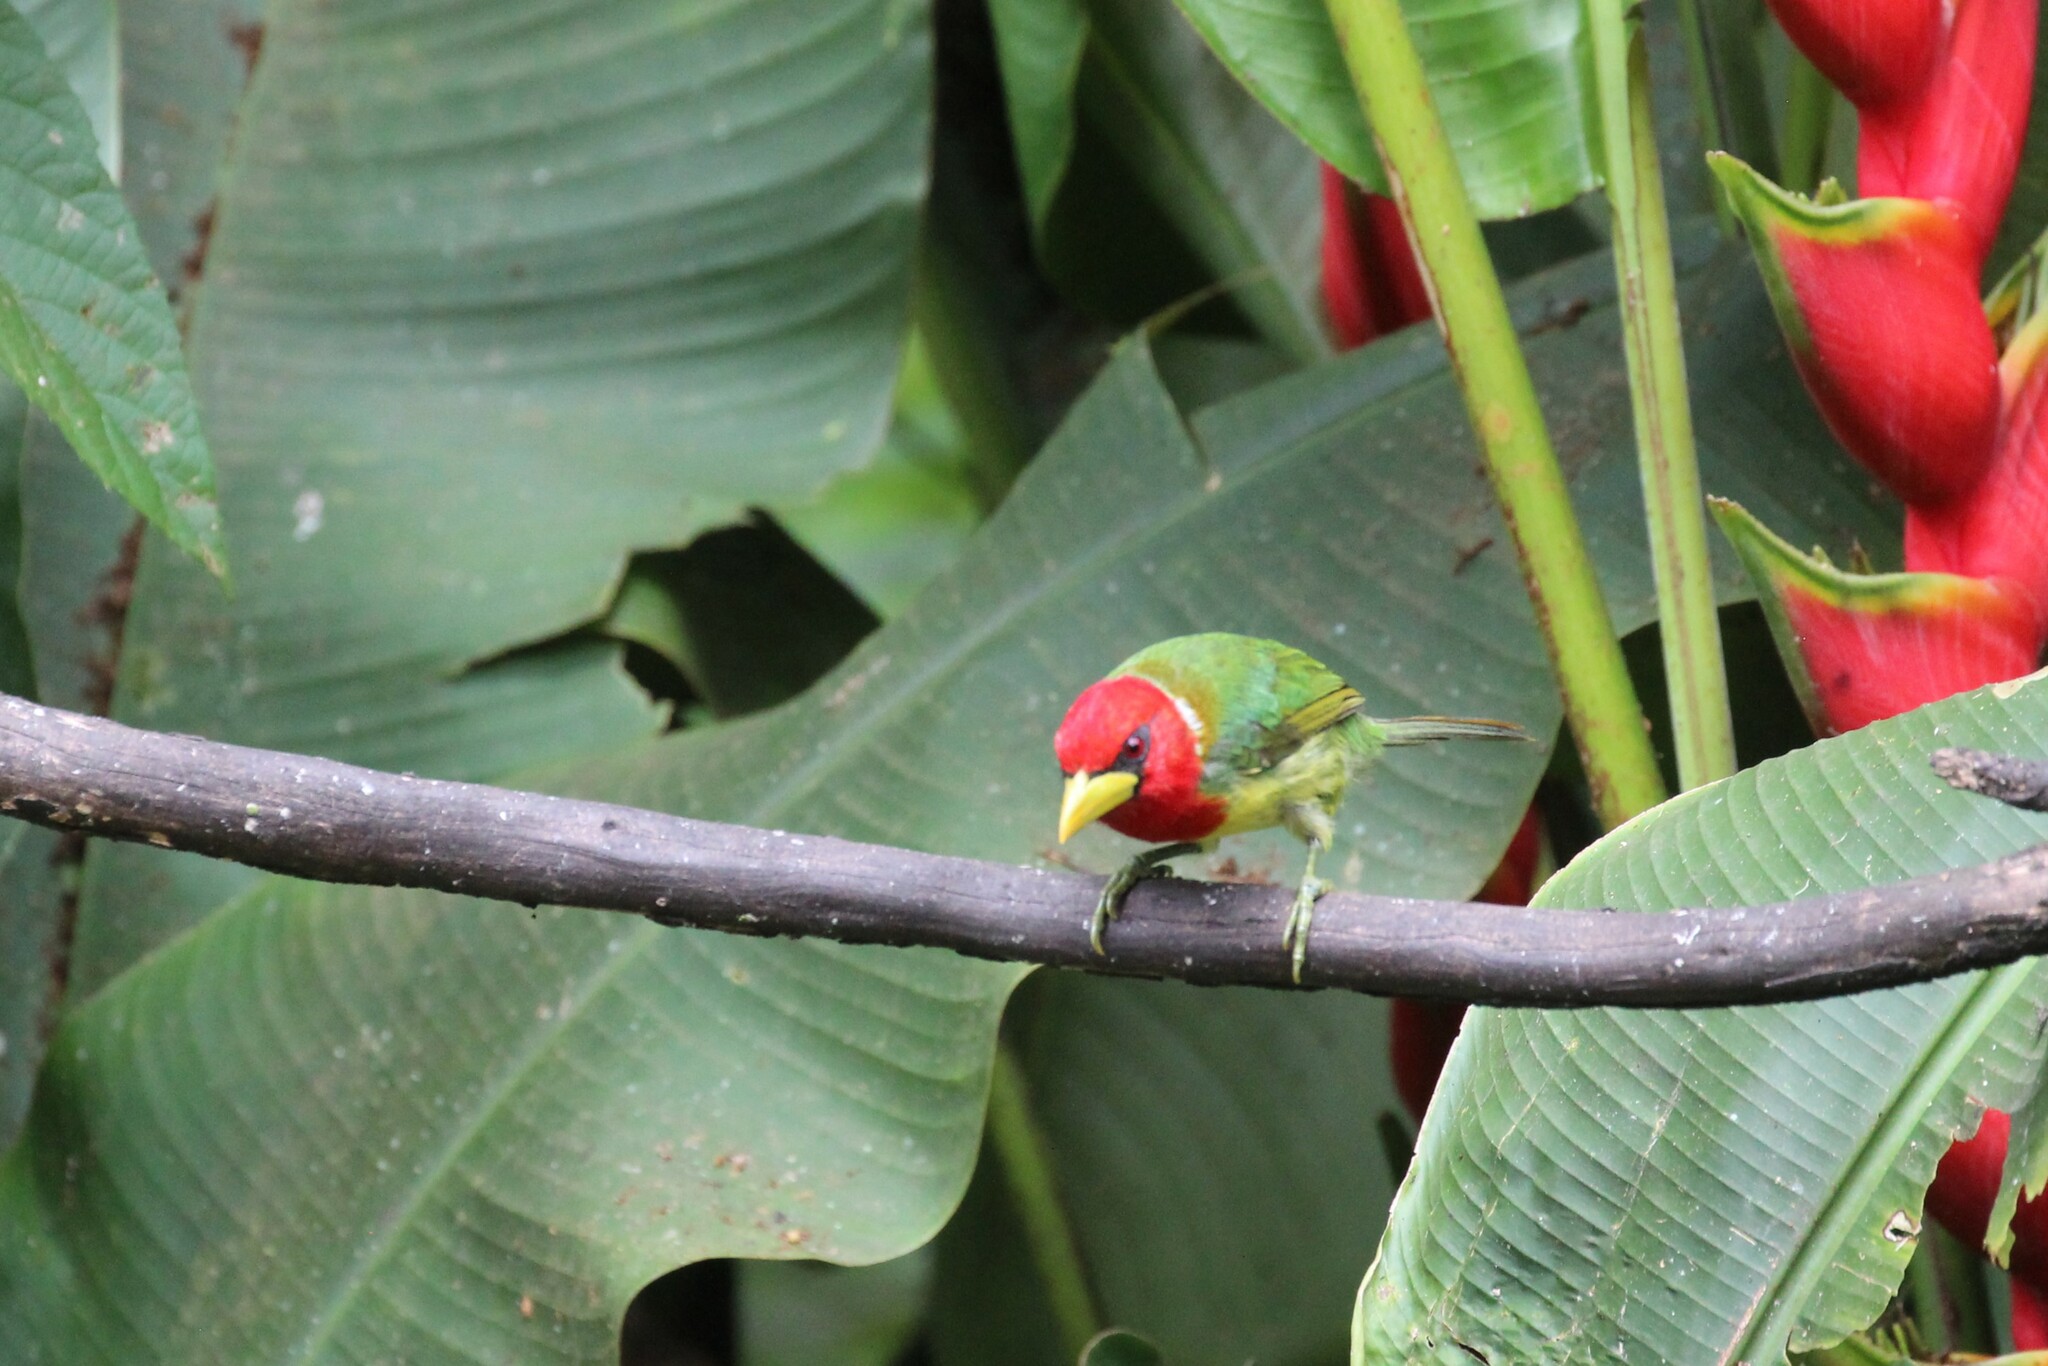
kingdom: Animalia
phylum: Chordata
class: Aves
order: Piciformes
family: Capitonidae
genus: Eubucco
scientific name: Eubucco bourcierii
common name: Red-headed barbet
